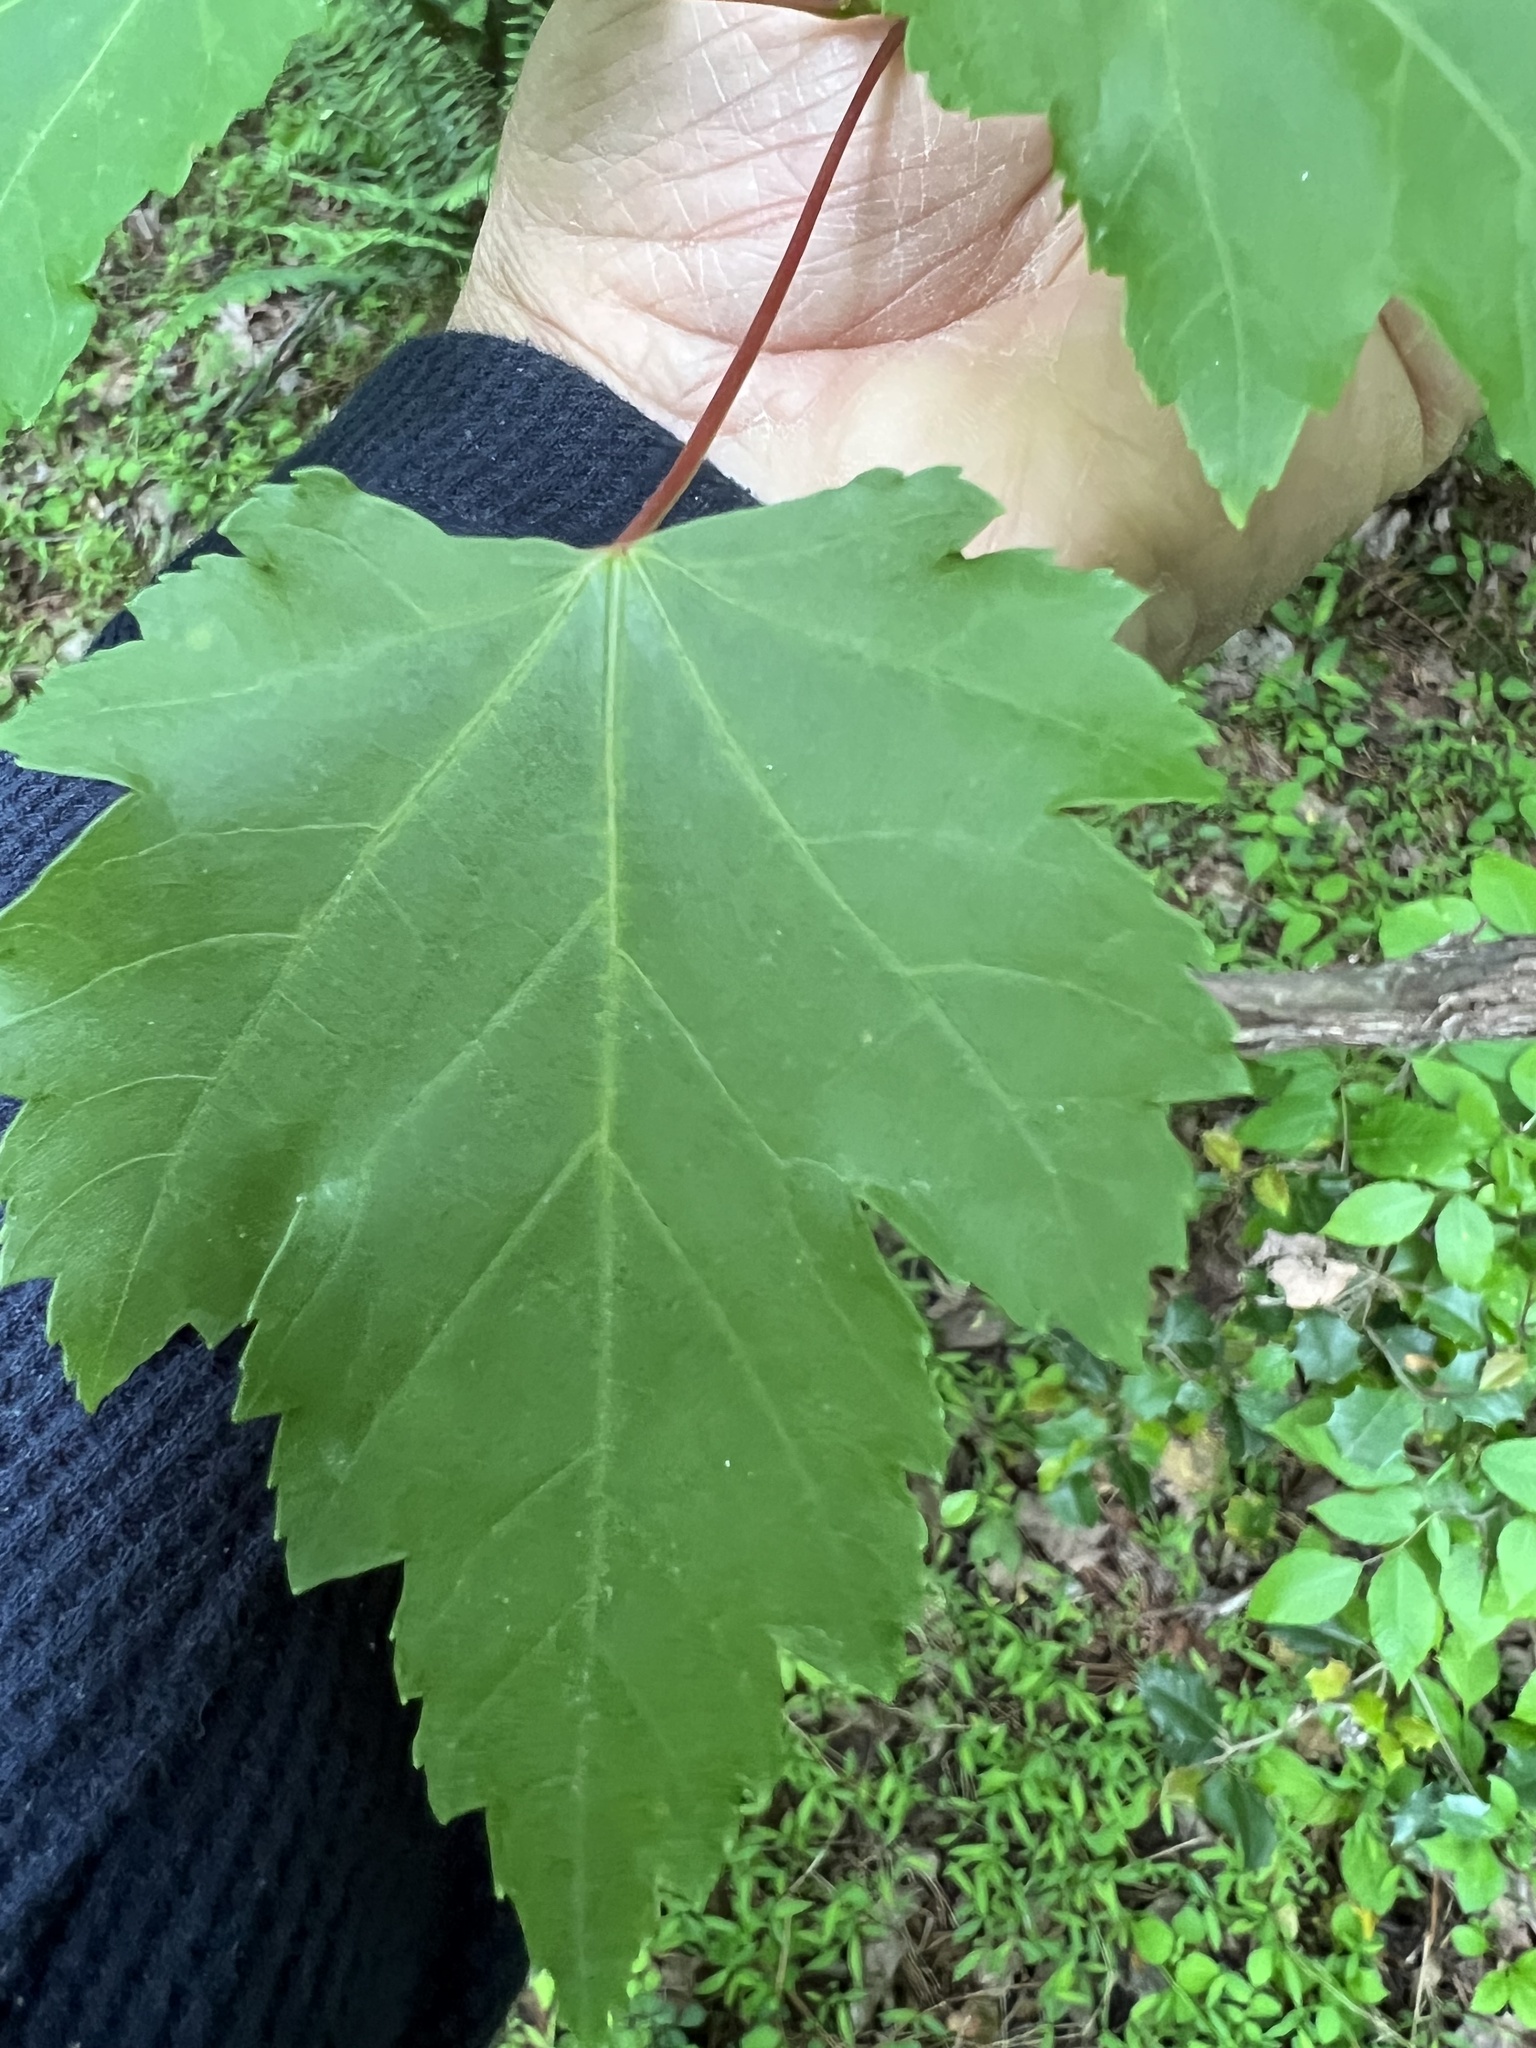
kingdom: Plantae
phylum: Tracheophyta
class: Magnoliopsida
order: Sapindales
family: Sapindaceae
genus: Acer
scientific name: Acer rubrum
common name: Red maple
